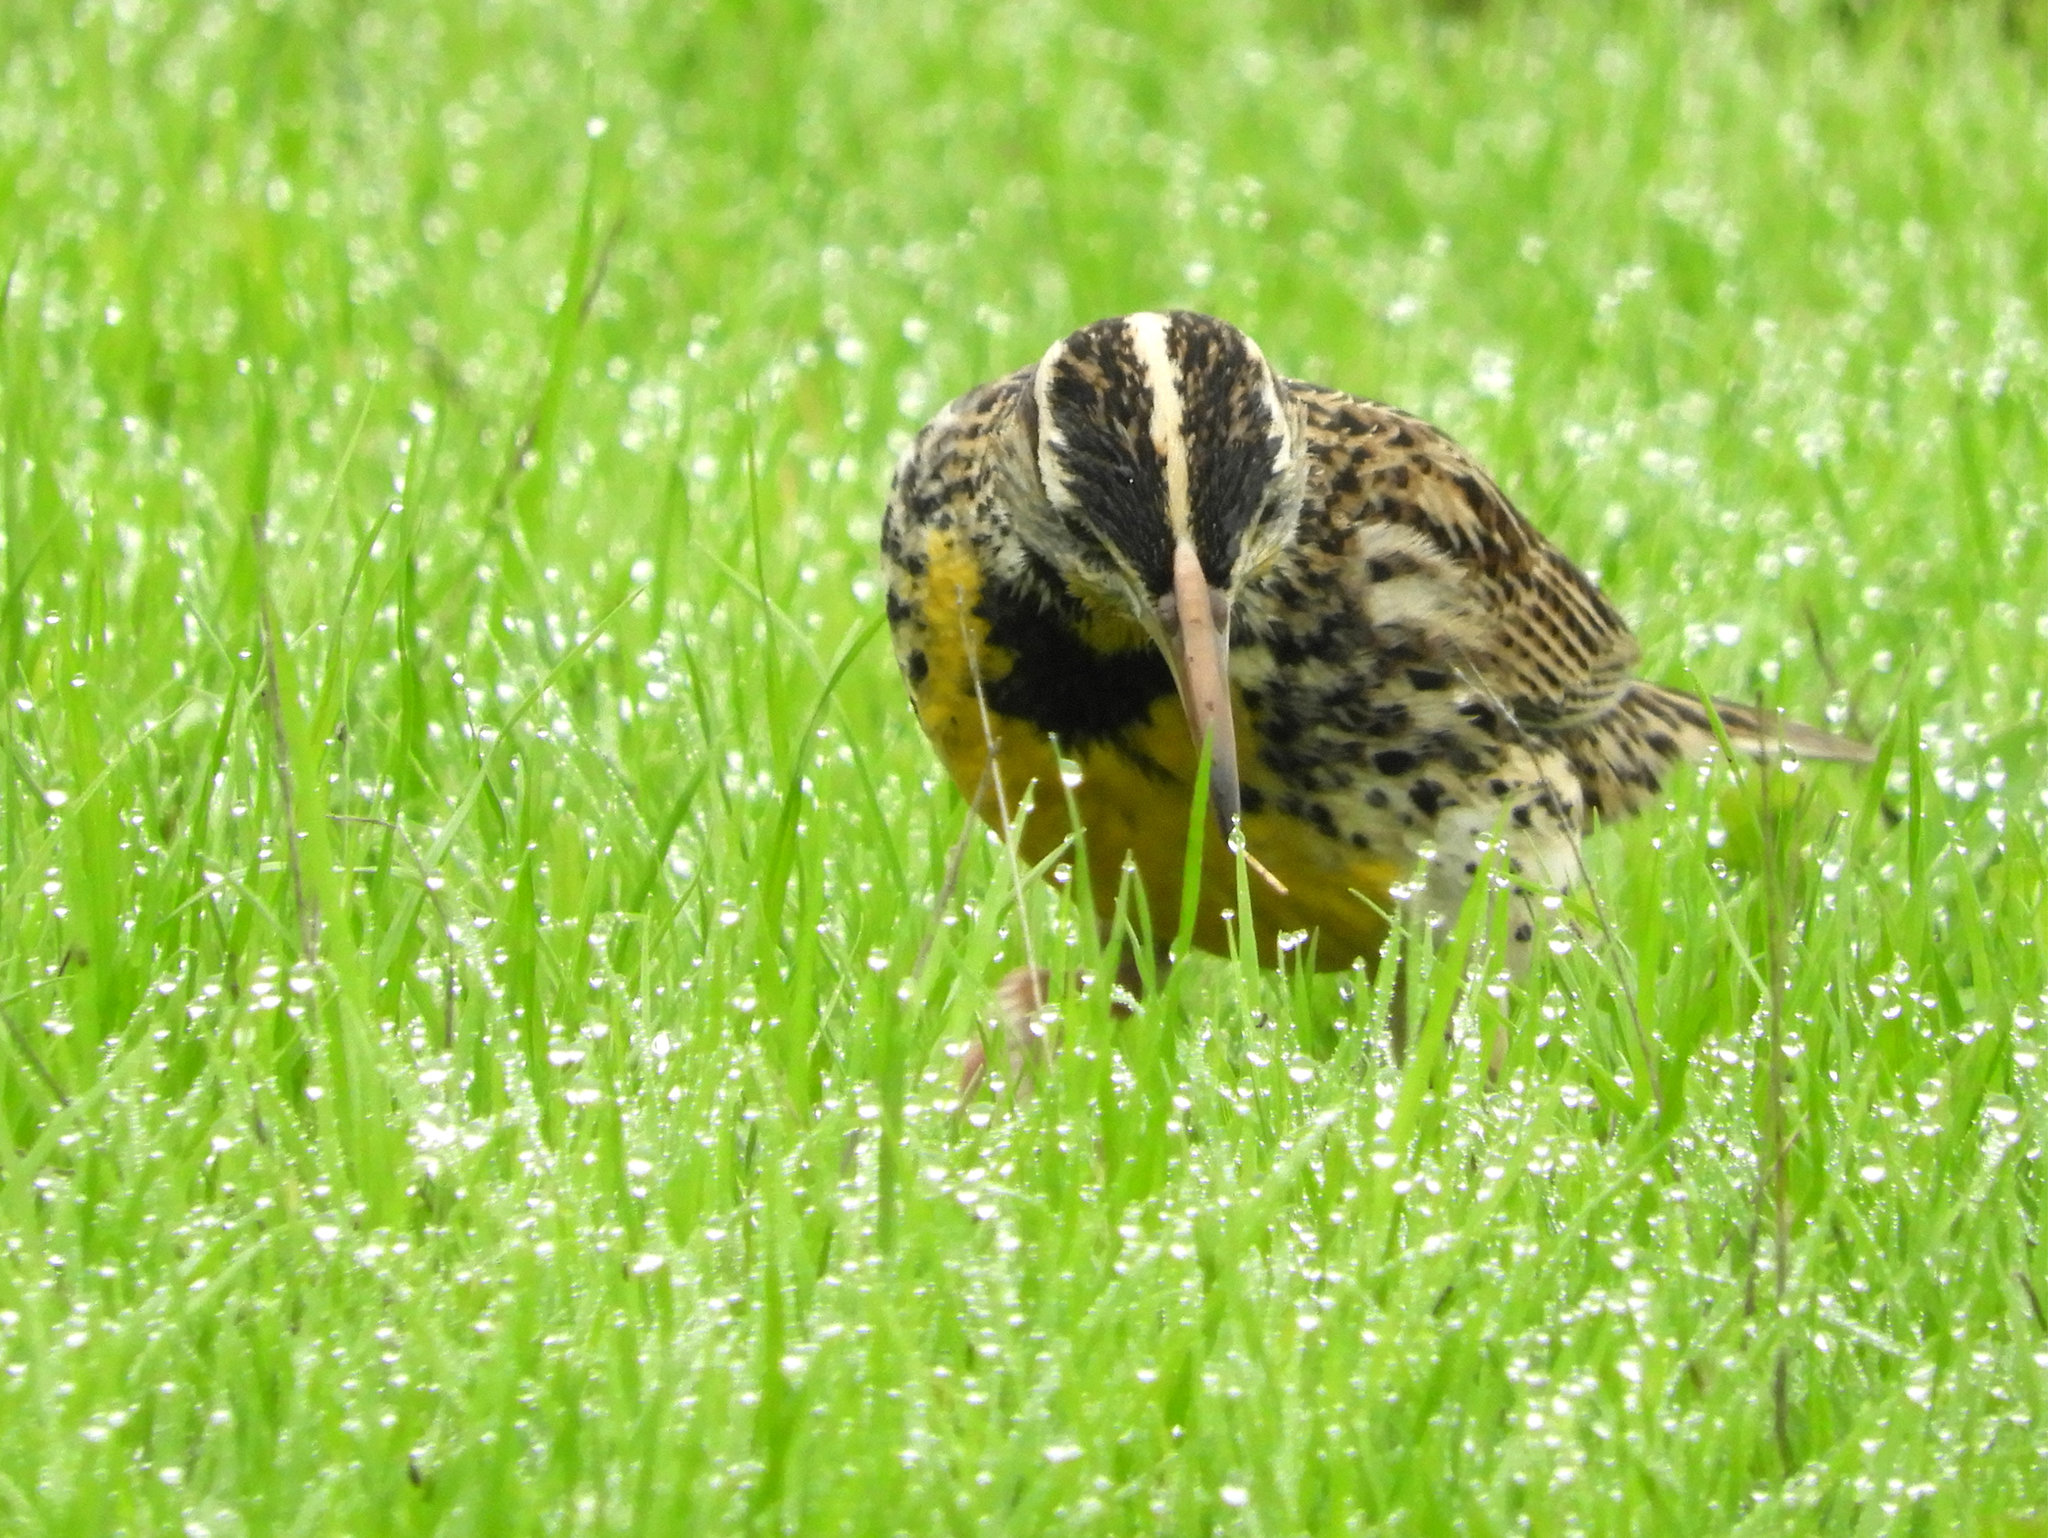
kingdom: Animalia
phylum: Chordata
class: Aves
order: Passeriformes
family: Icteridae
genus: Sturnella
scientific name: Sturnella neglecta
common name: Western meadowlark
